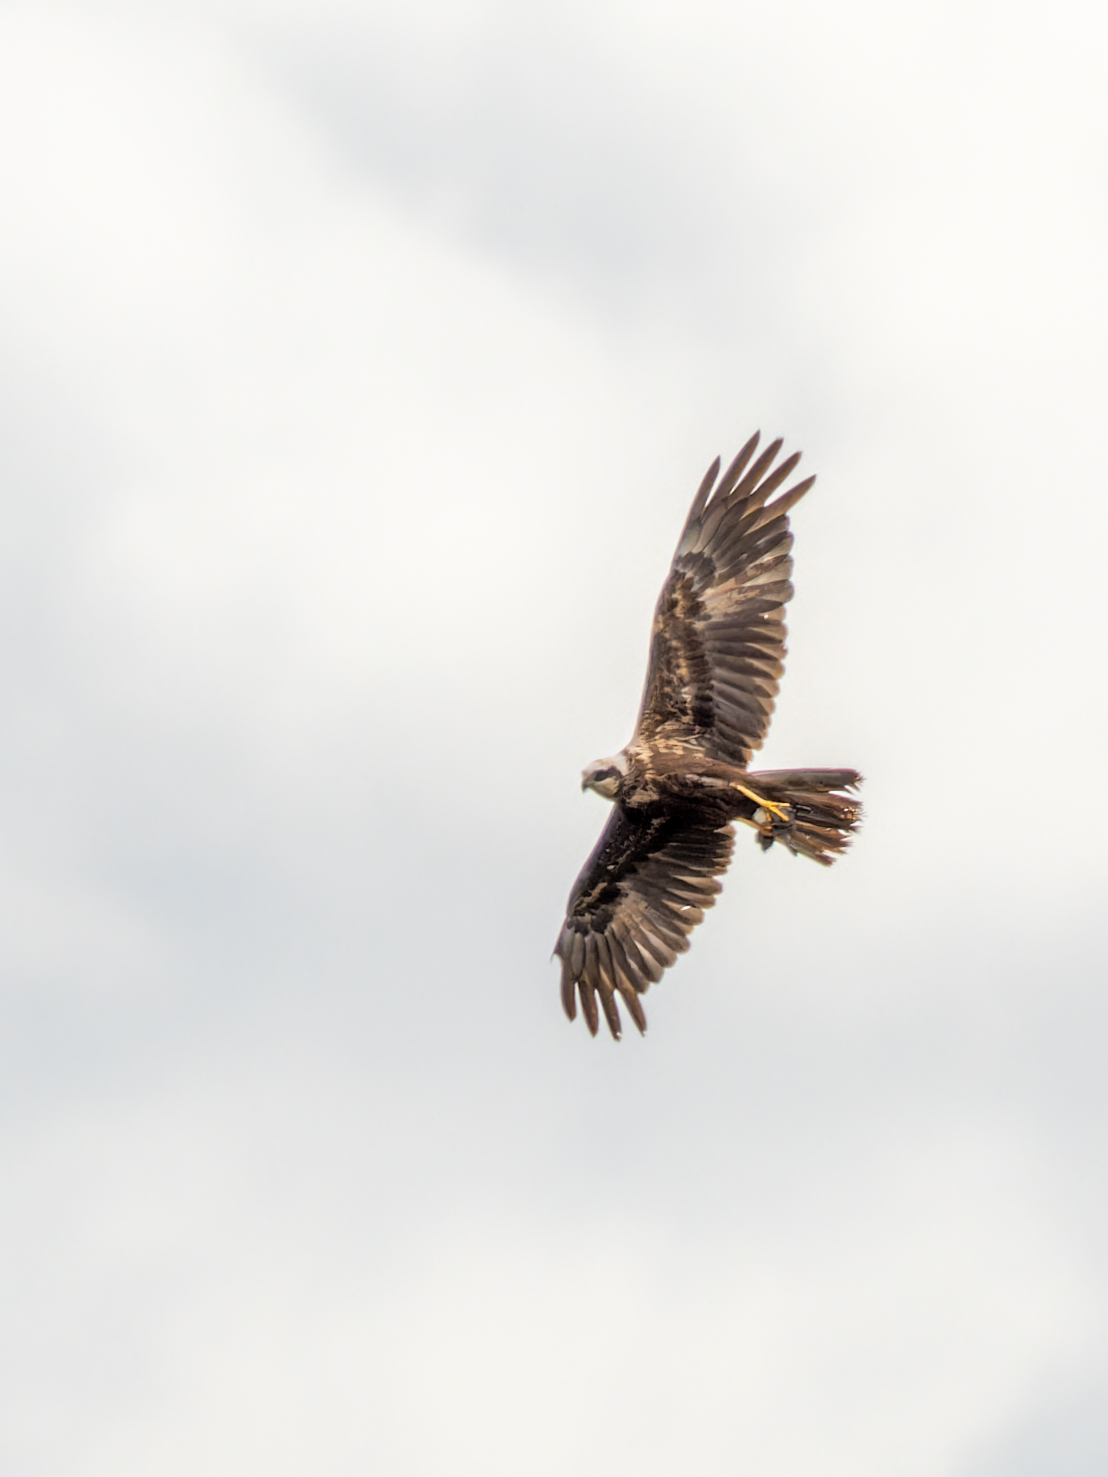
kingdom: Animalia
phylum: Chordata
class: Aves
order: Accipitriformes
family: Accipitridae
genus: Circus
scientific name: Circus aeruginosus
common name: Western marsh harrier
